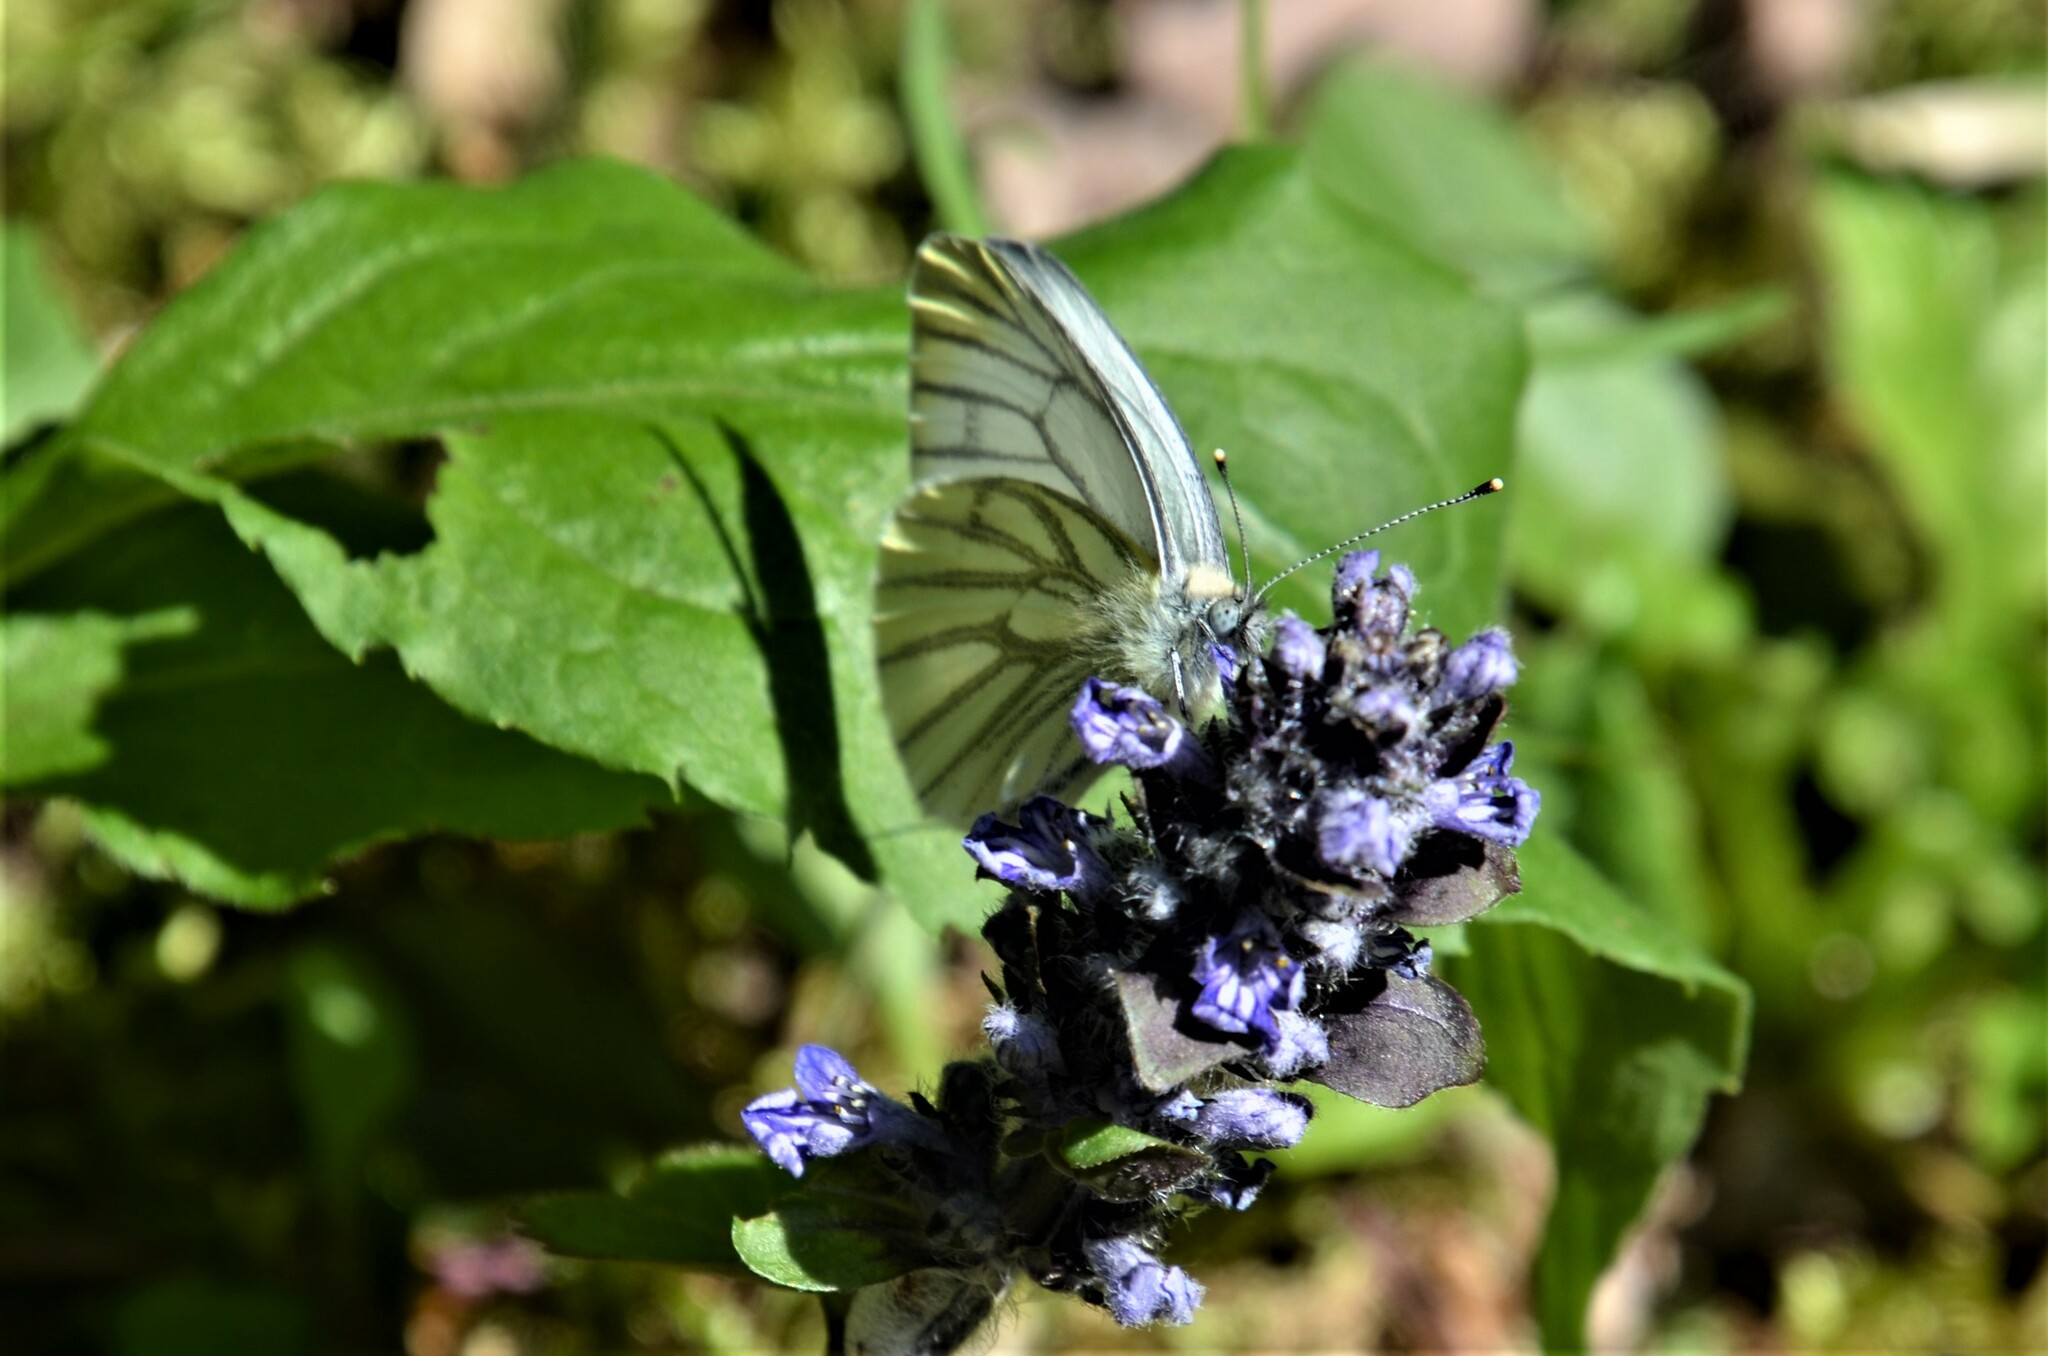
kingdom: Animalia
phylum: Arthropoda
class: Insecta
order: Lepidoptera
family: Pieridae
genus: Pieris
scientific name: Pieris napi
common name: Green-veined white
